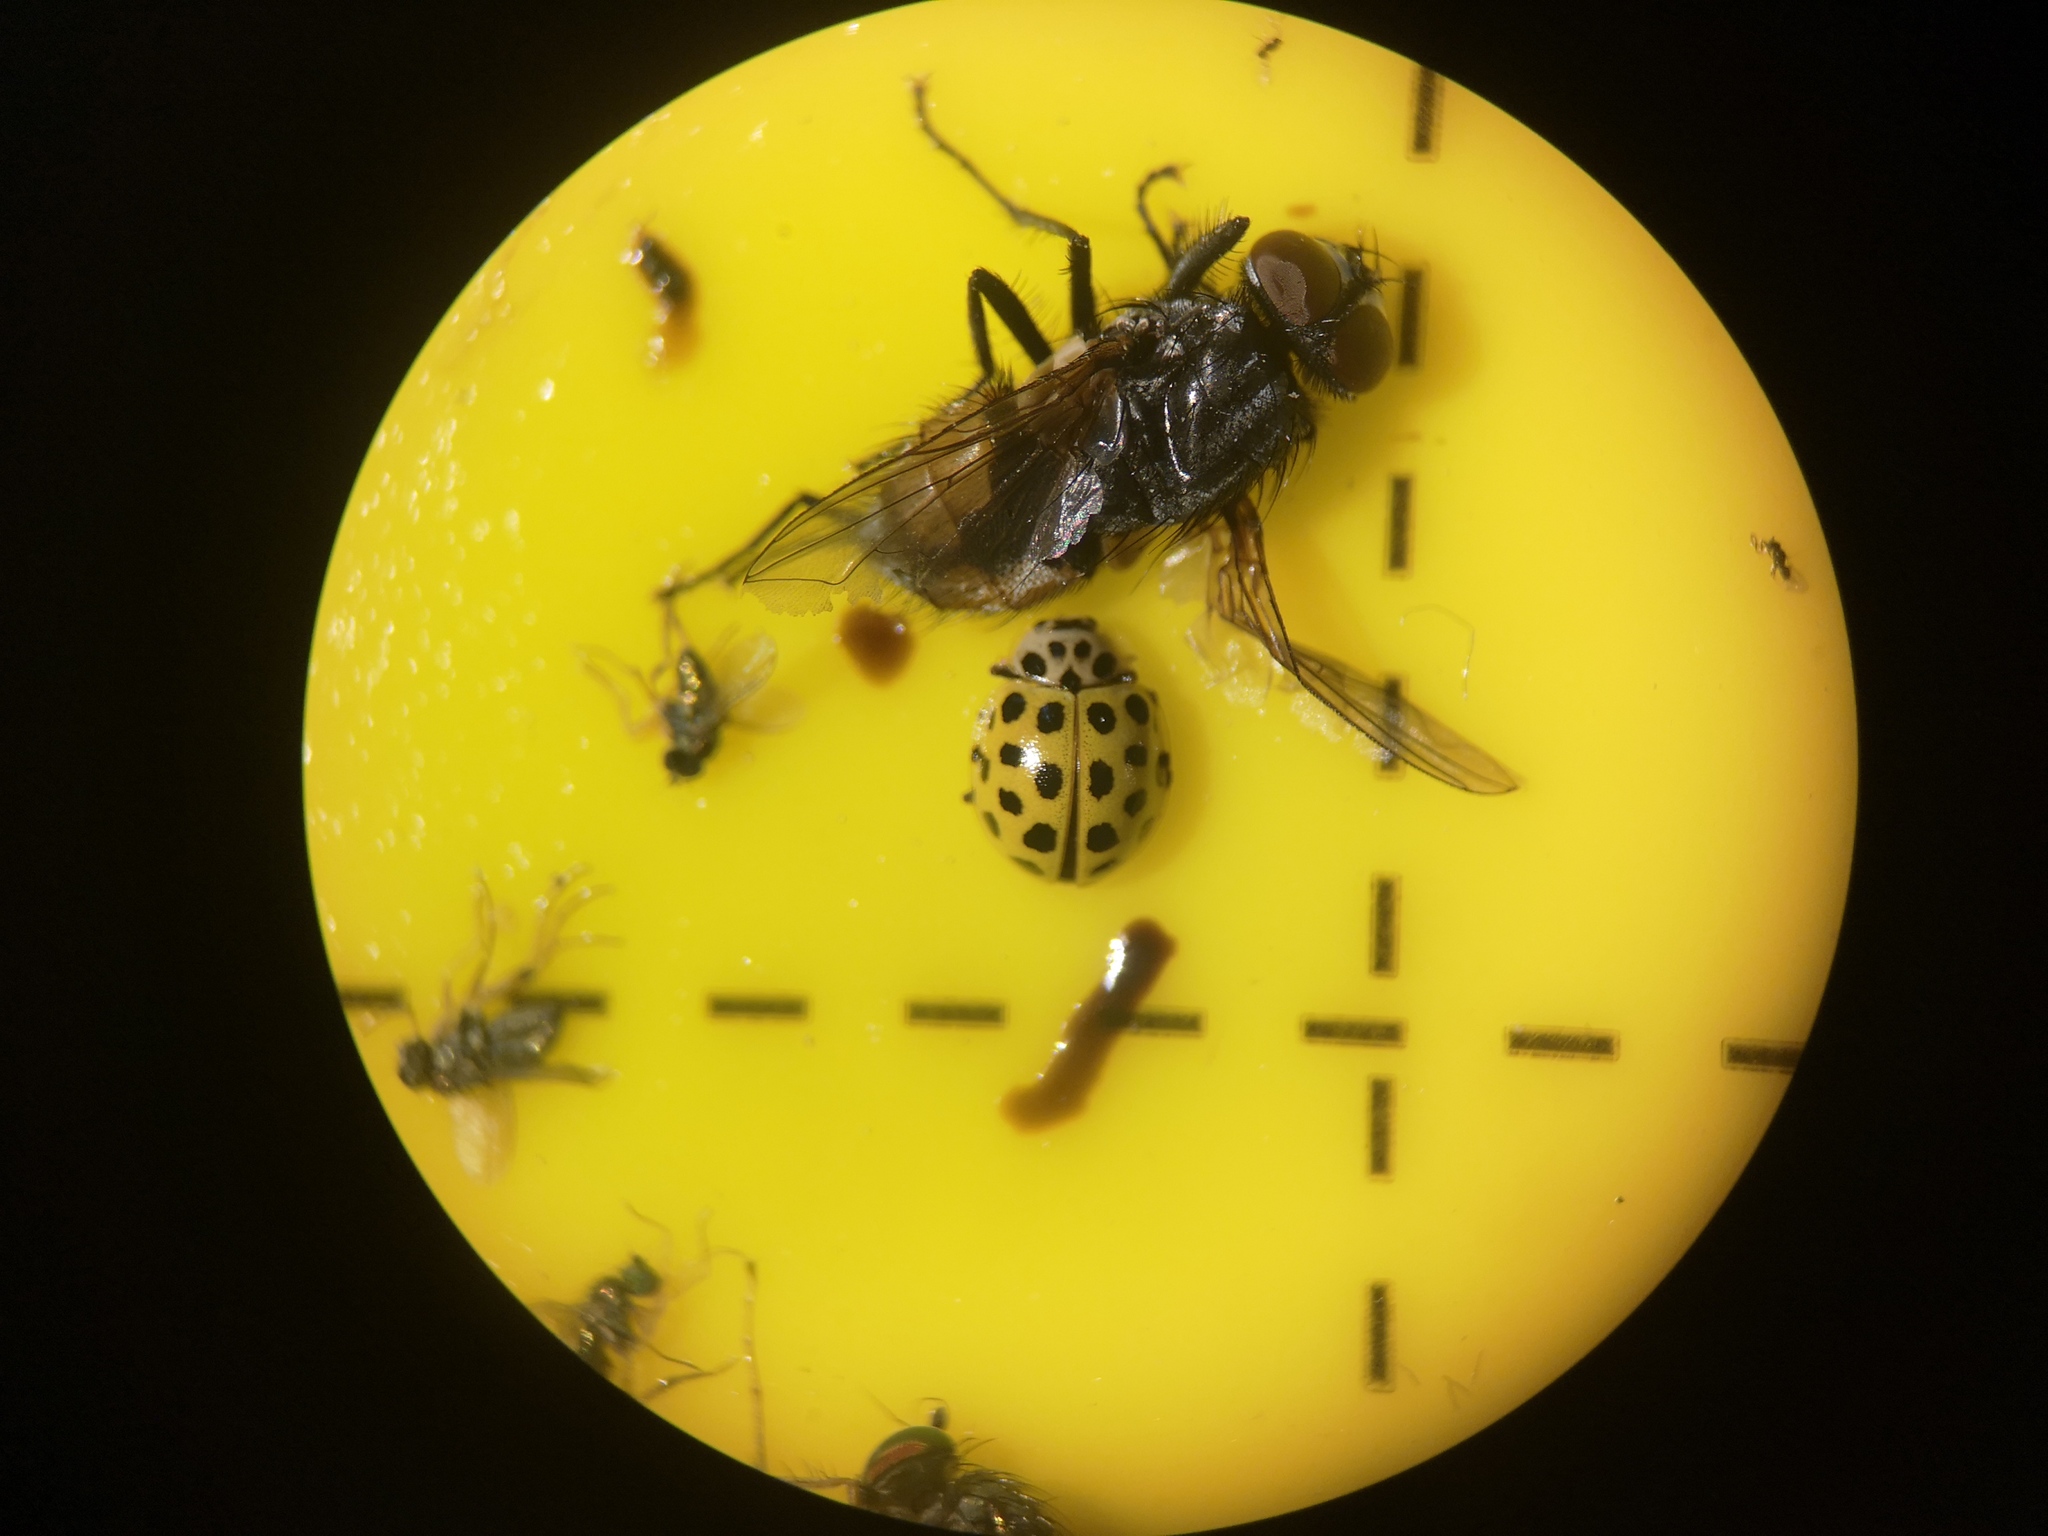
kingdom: Animalia
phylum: Arthropoda
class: Insecta
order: Coleoptera
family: Coccinellidae
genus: Psyllobora
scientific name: Psyllobora vigintiduopunctata
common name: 22-spot ladybird
